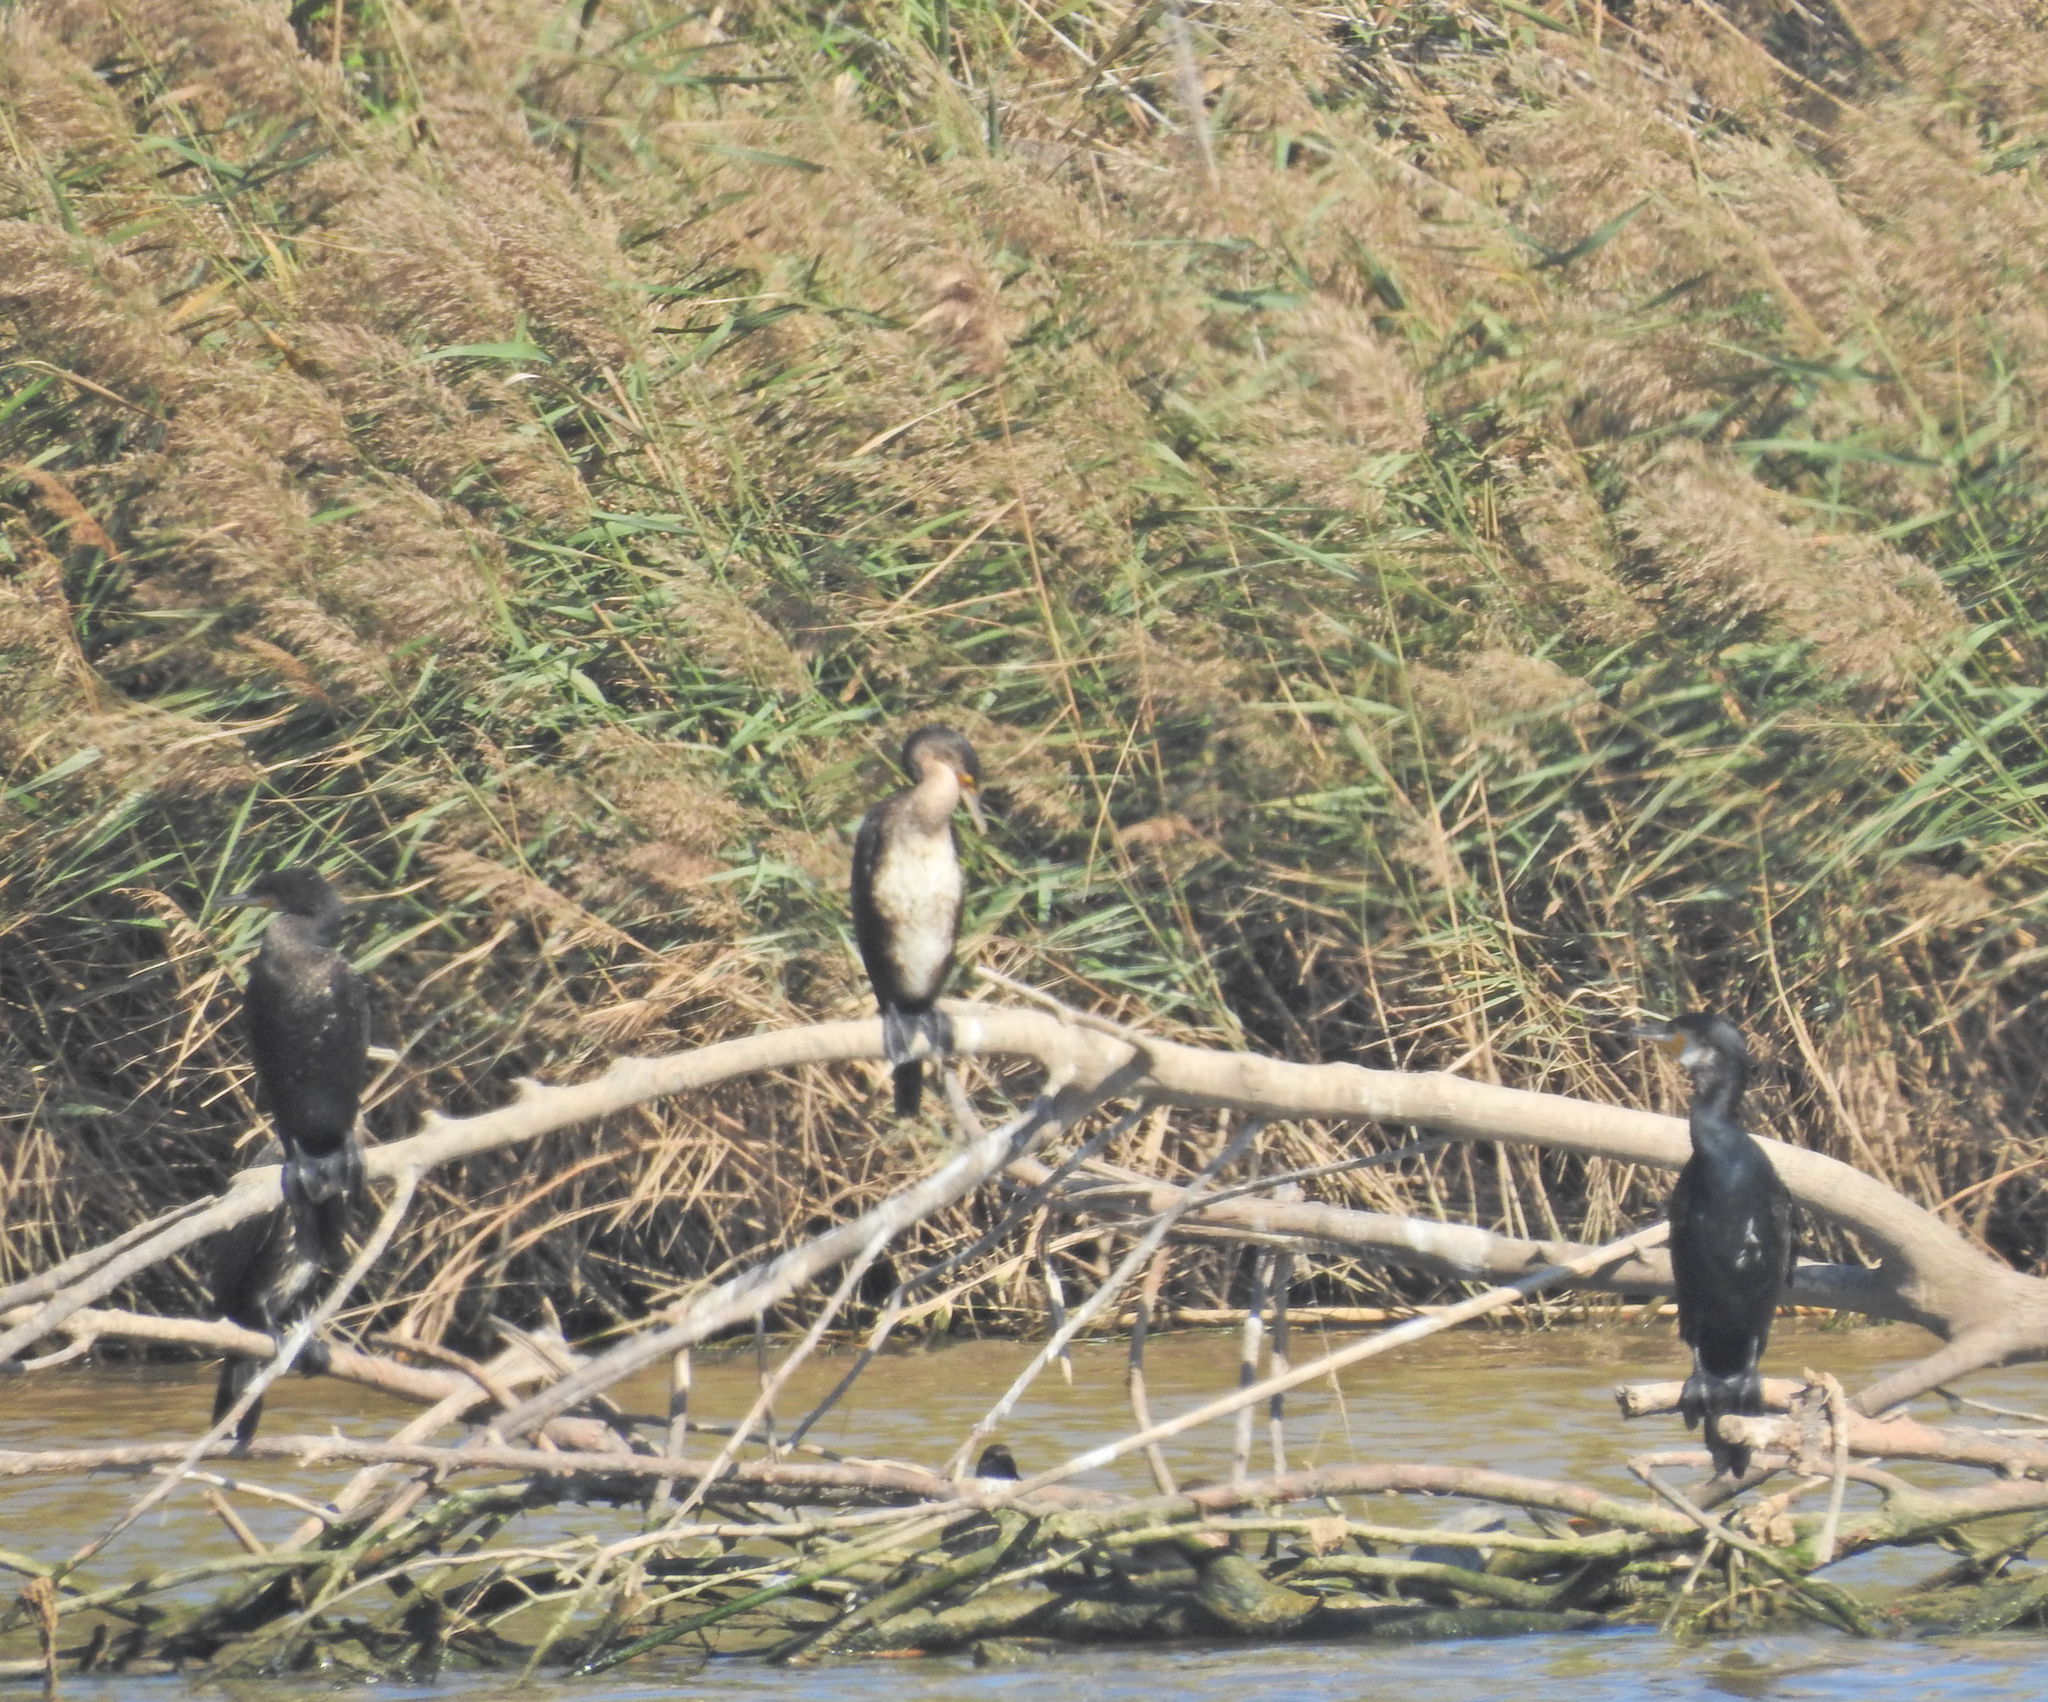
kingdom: Animalia
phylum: Chordata
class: Aves
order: Suliformes
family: Phalacrocoracidae
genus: Phalacrocorax
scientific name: Phalacrocorax carbo
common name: Great cormorant
